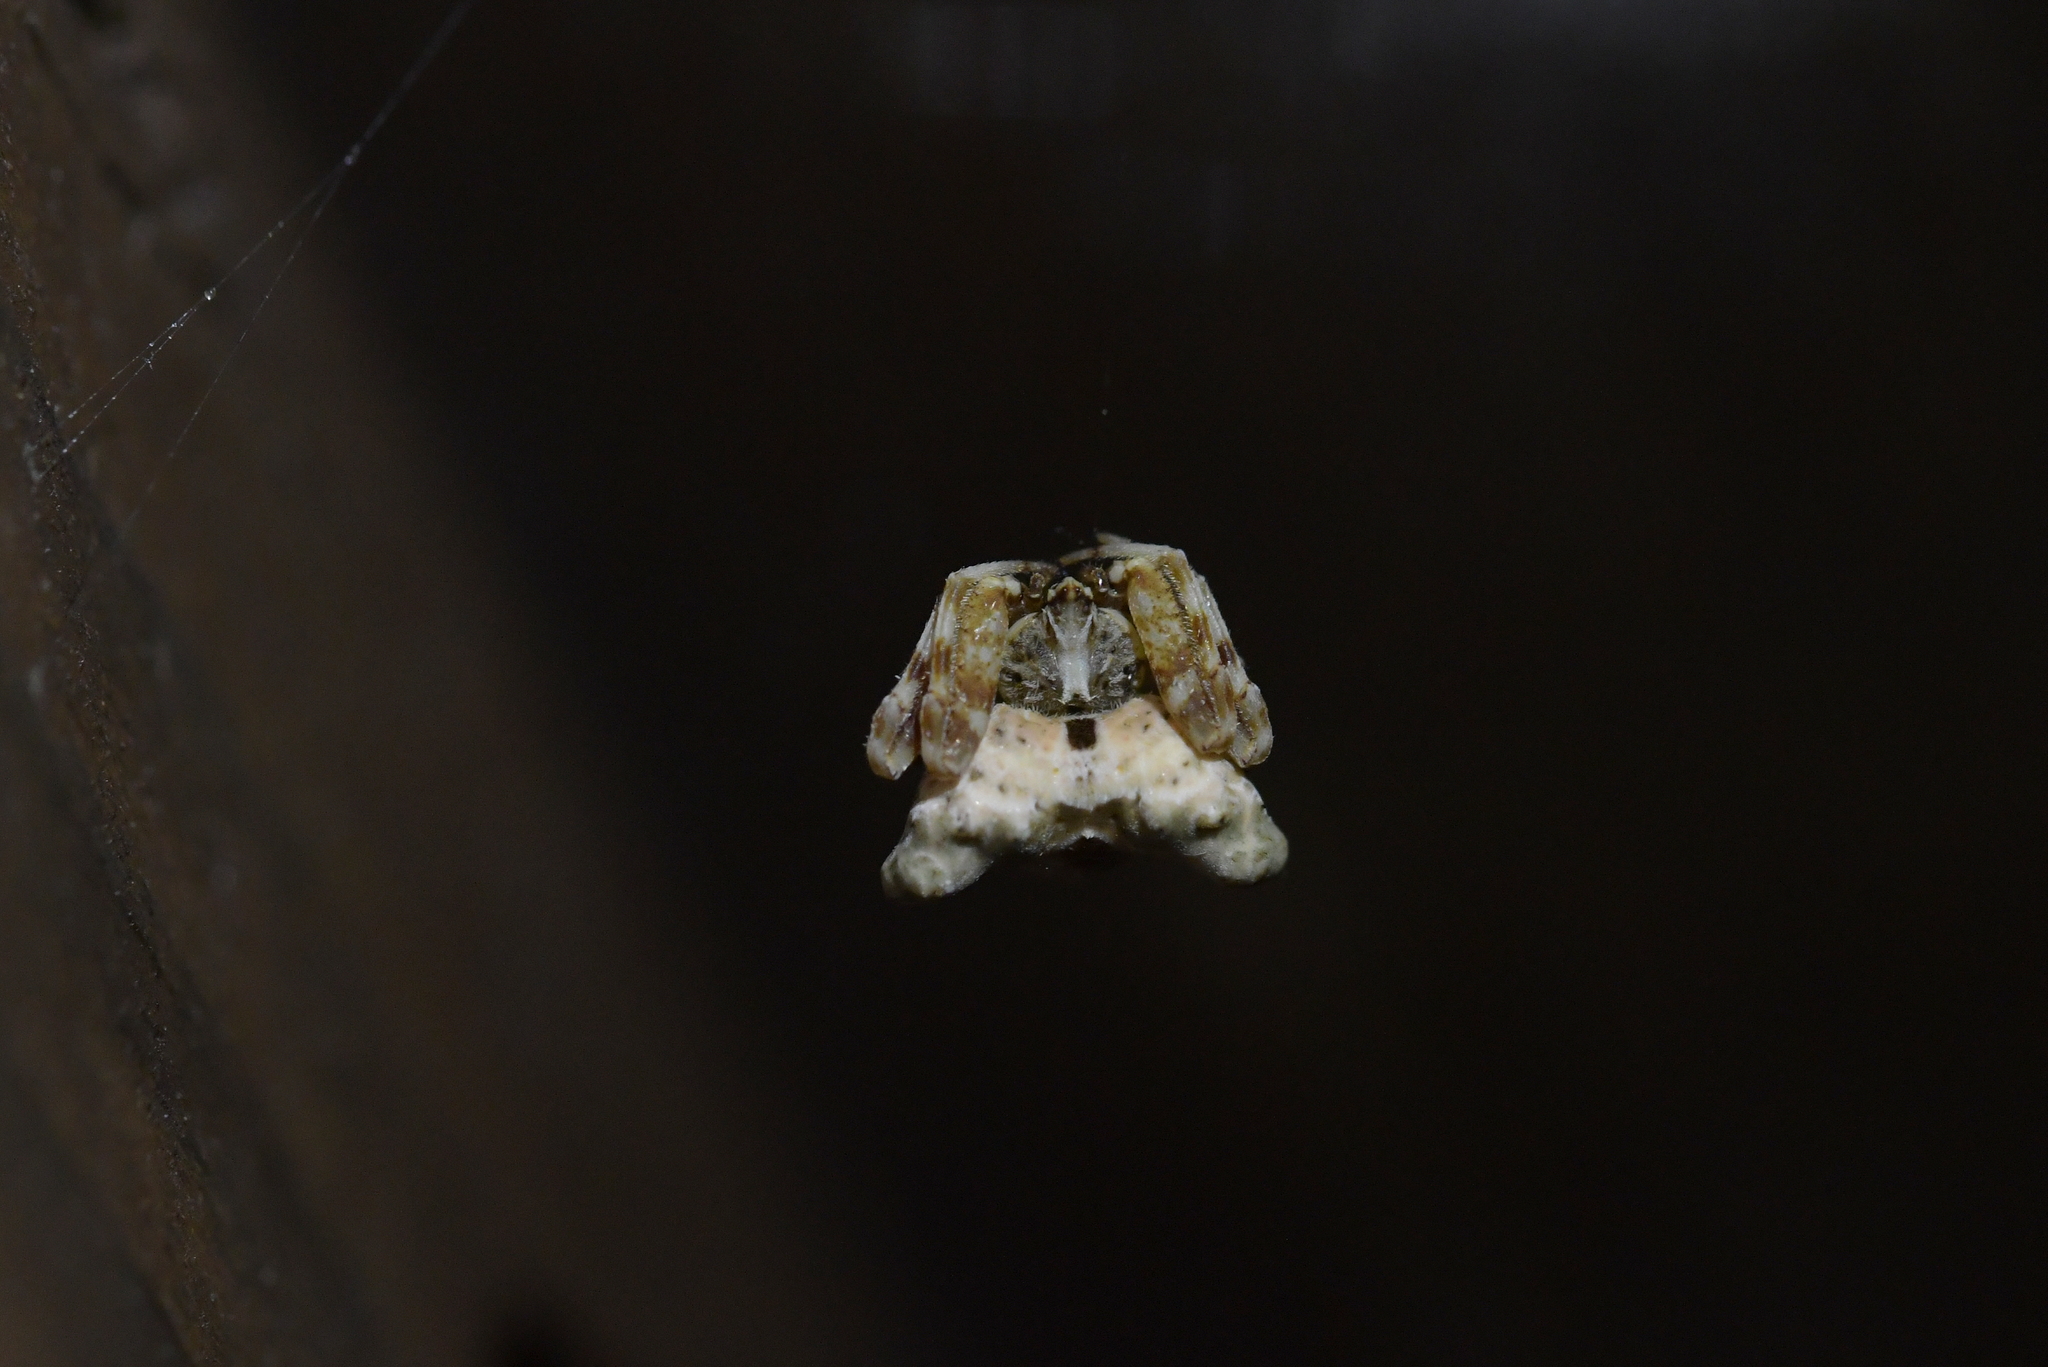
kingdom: Animalia
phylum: Arthropoda
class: Arachnida
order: Araneae
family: Araneidae
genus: Celaenia
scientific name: Celaenia olivacea
